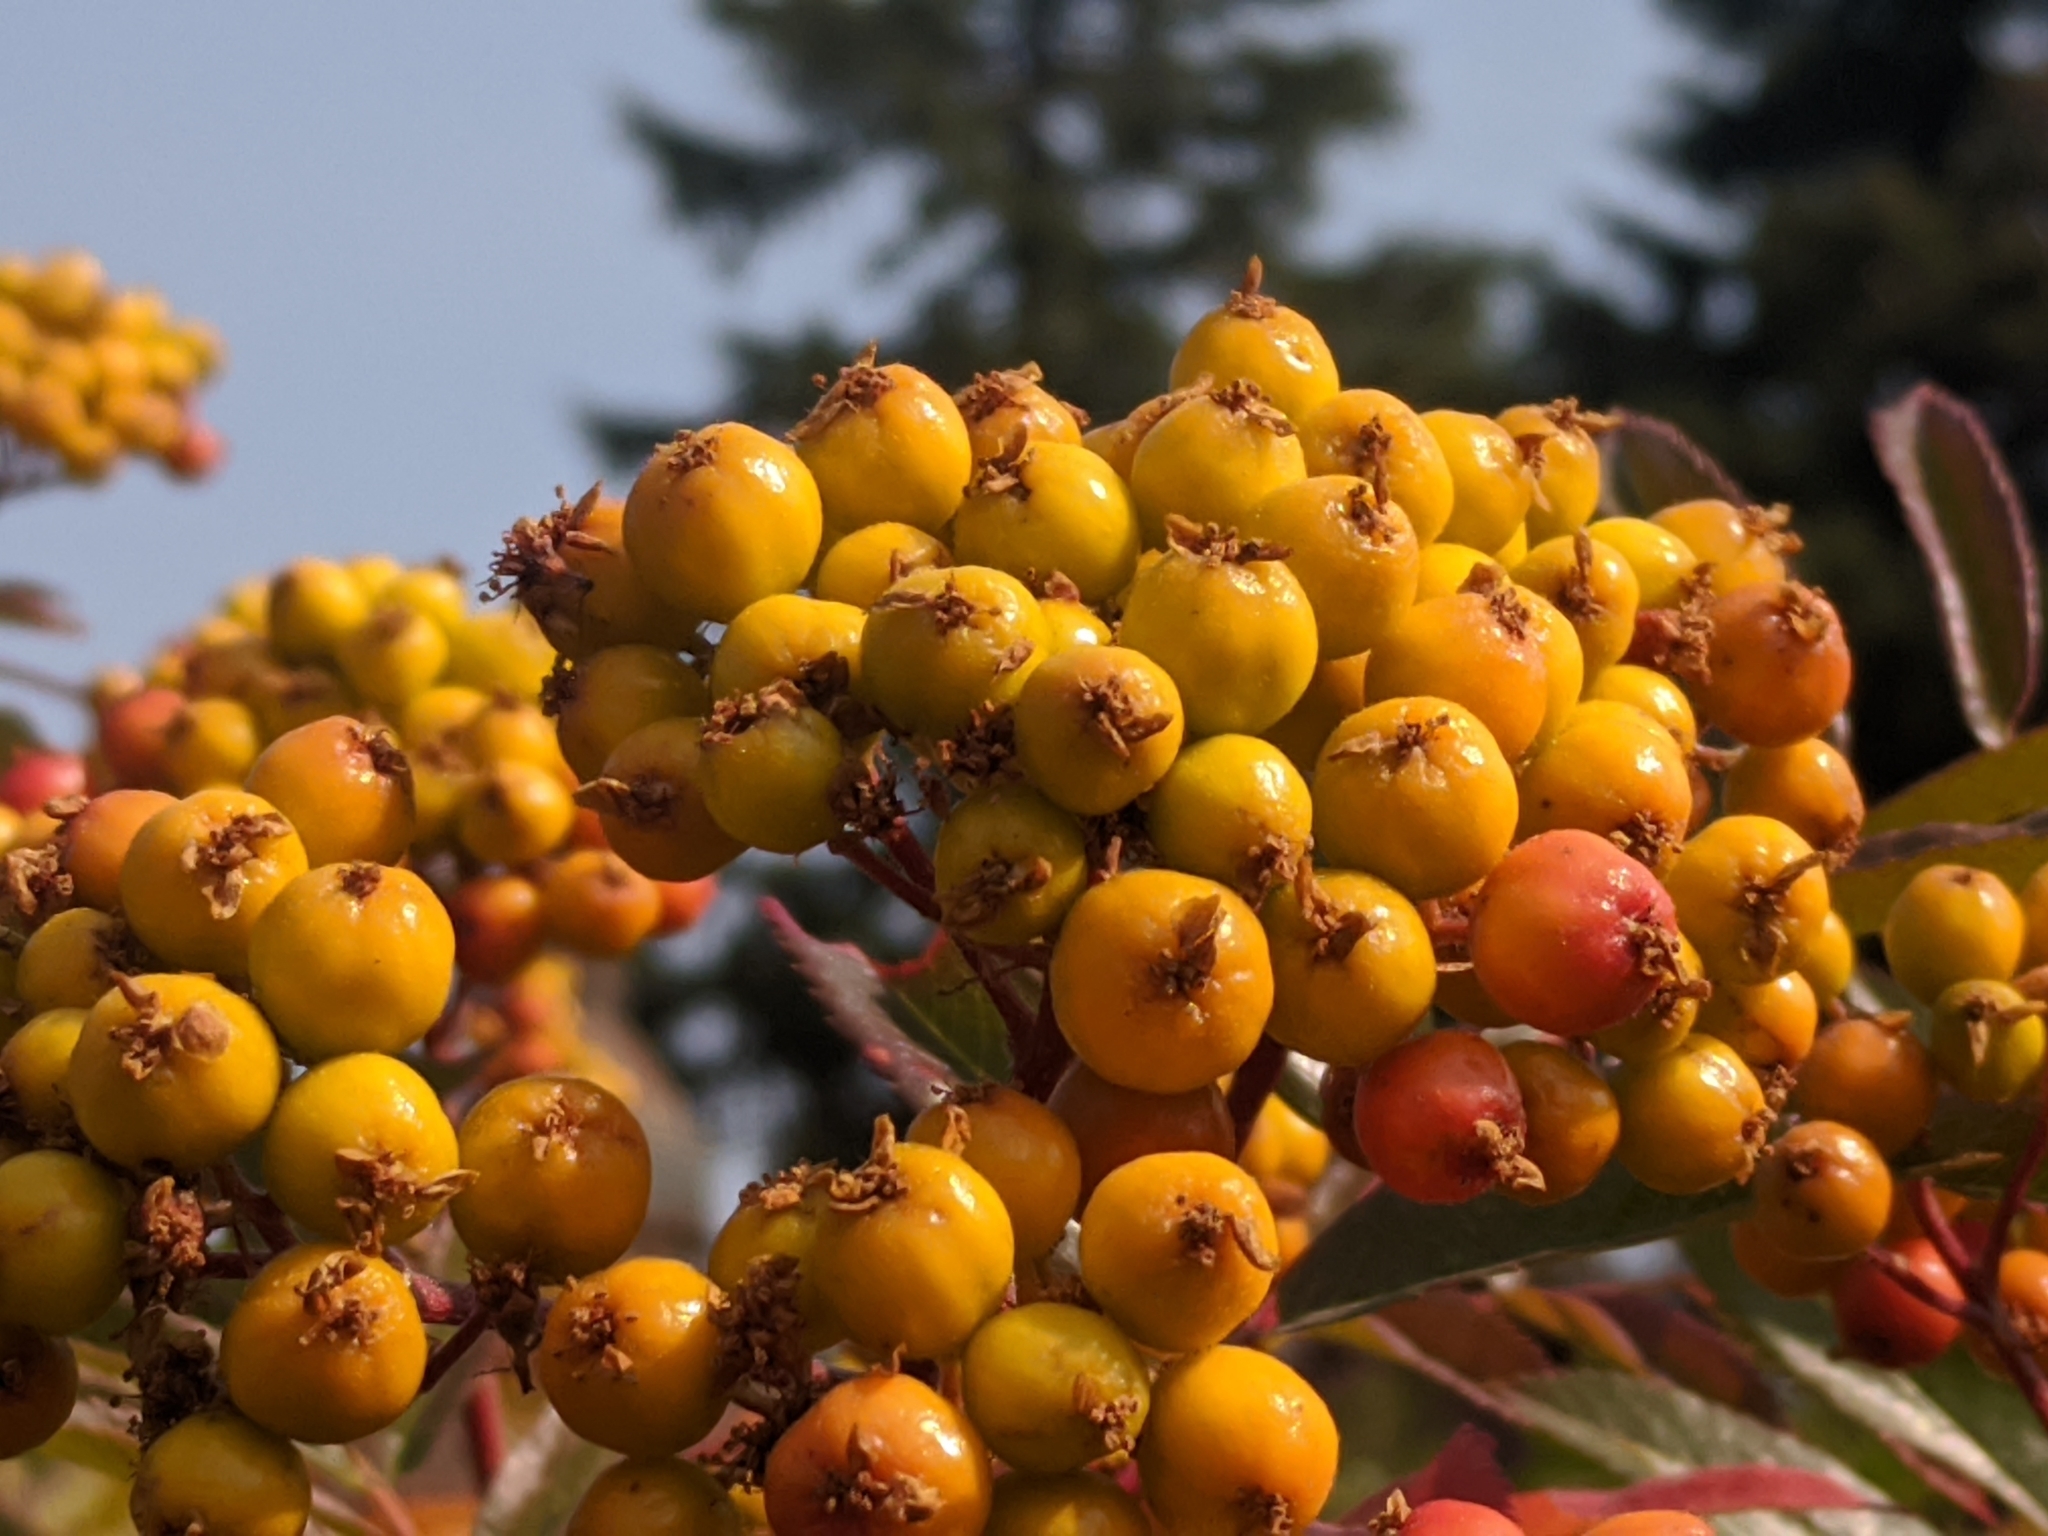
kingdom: Plantae
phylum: Tracheophyta
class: Magnoliopsida
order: Rosales
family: Rosaceae
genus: Sorbus
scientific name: Sorbus scopulina
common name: Greene's mountain-ash
